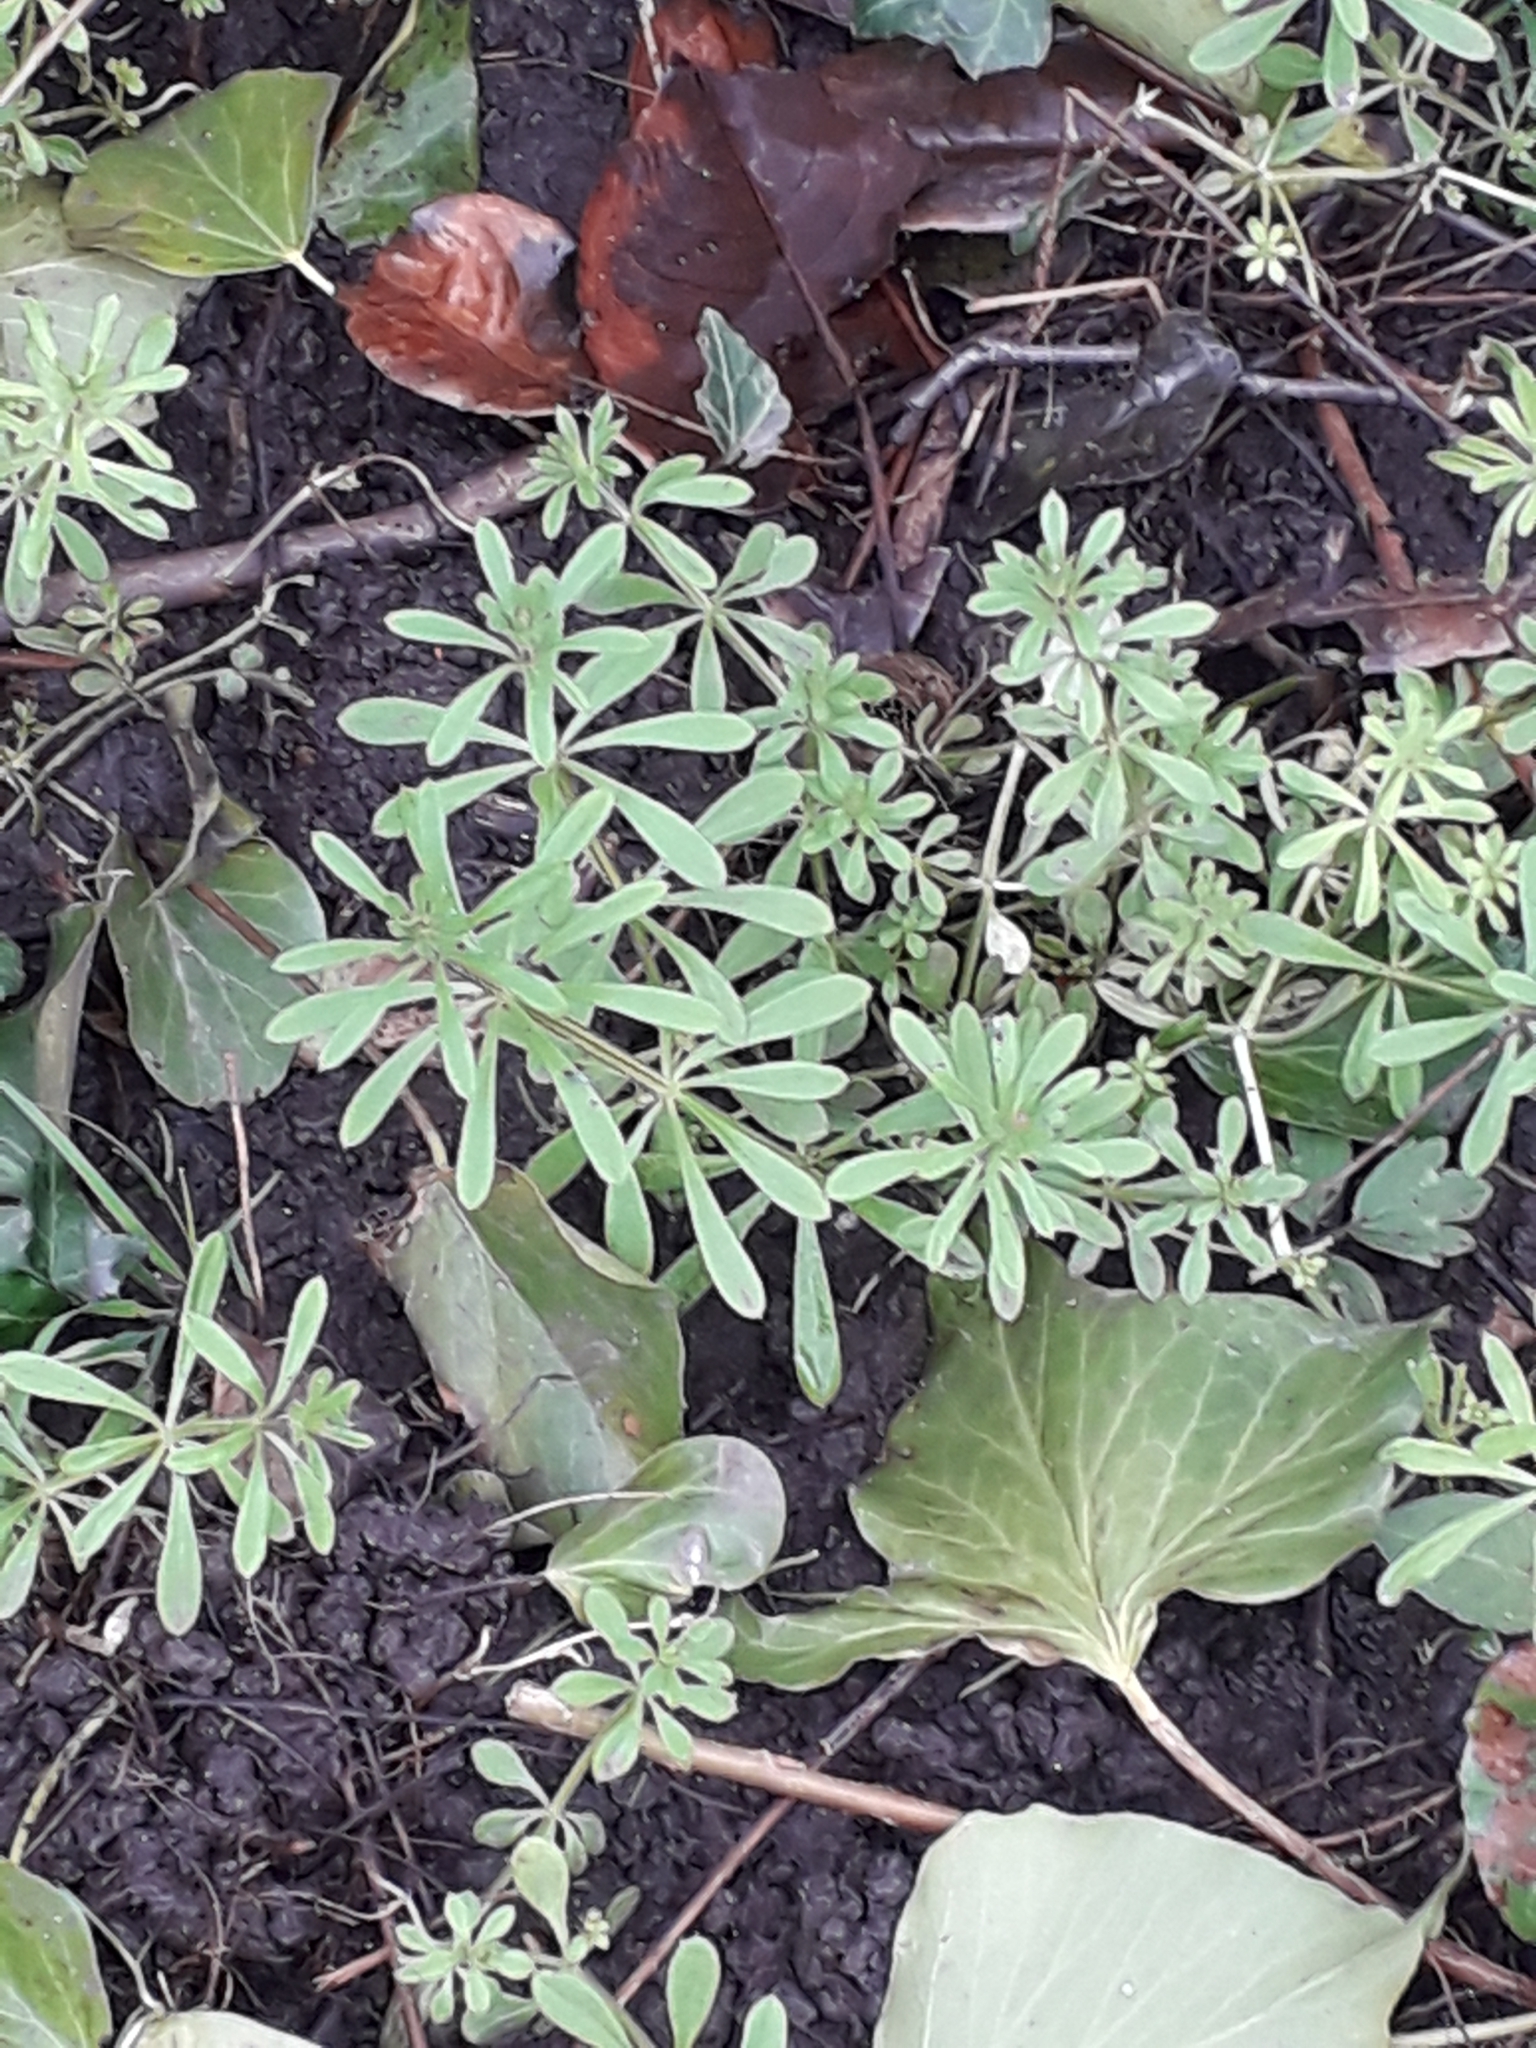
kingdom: Plantae
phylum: Tracheophyta
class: Magnoliopsida
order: Gentianales
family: Rubiaceae
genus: Galium
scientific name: Galium aparine
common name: Cleavers
